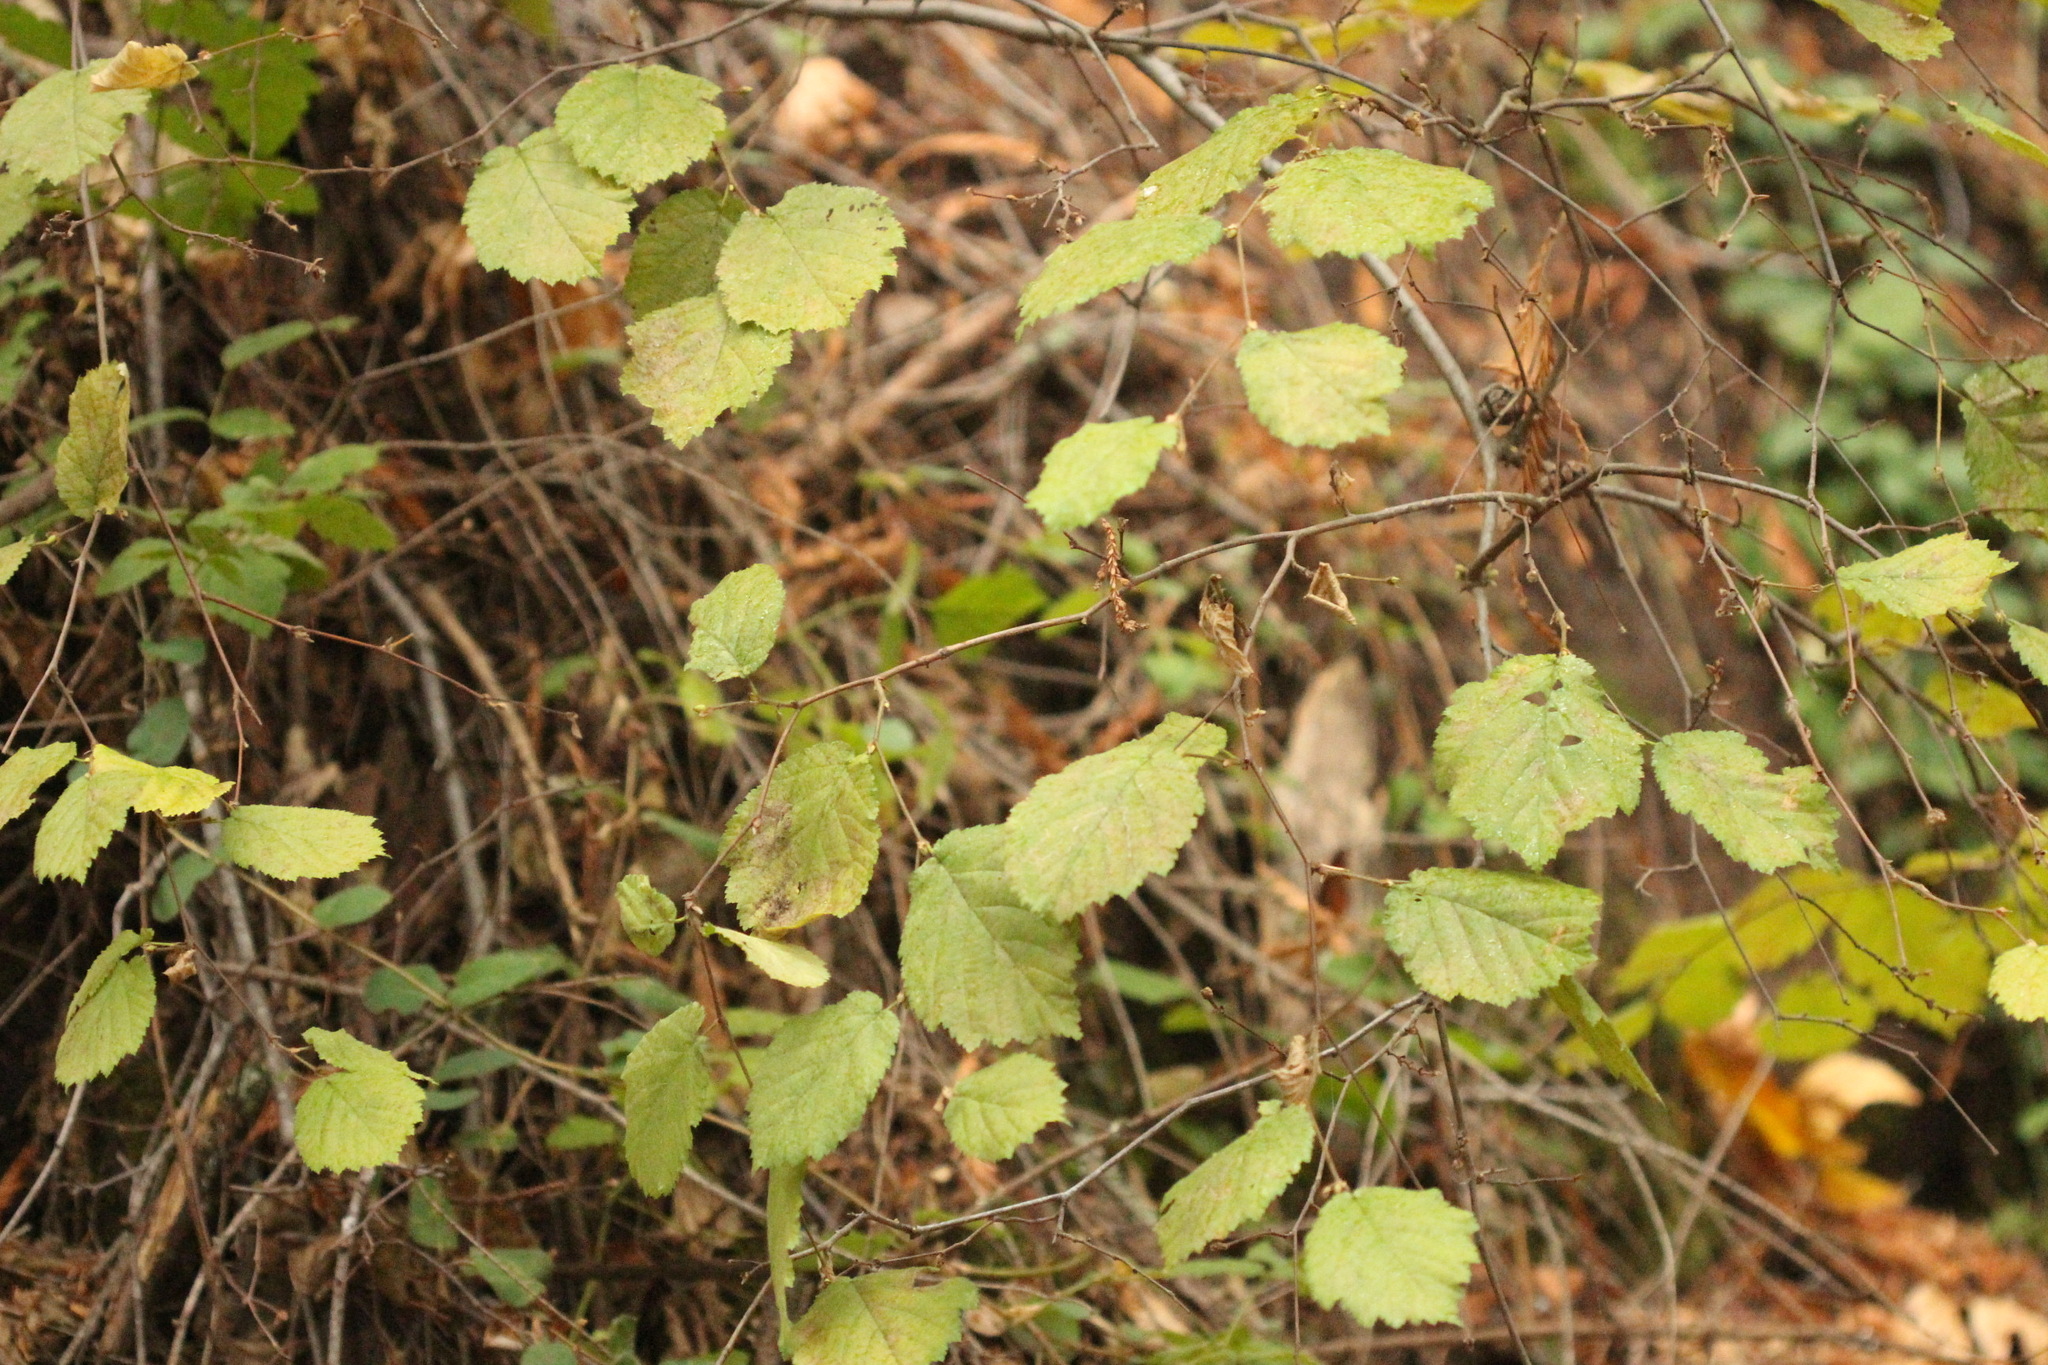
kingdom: Plantae
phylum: Tracheophyta
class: Magnoliopsida
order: Fagales
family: Betulaceae
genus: Corylus
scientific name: Corylus cornuta
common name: Beaked hazel
